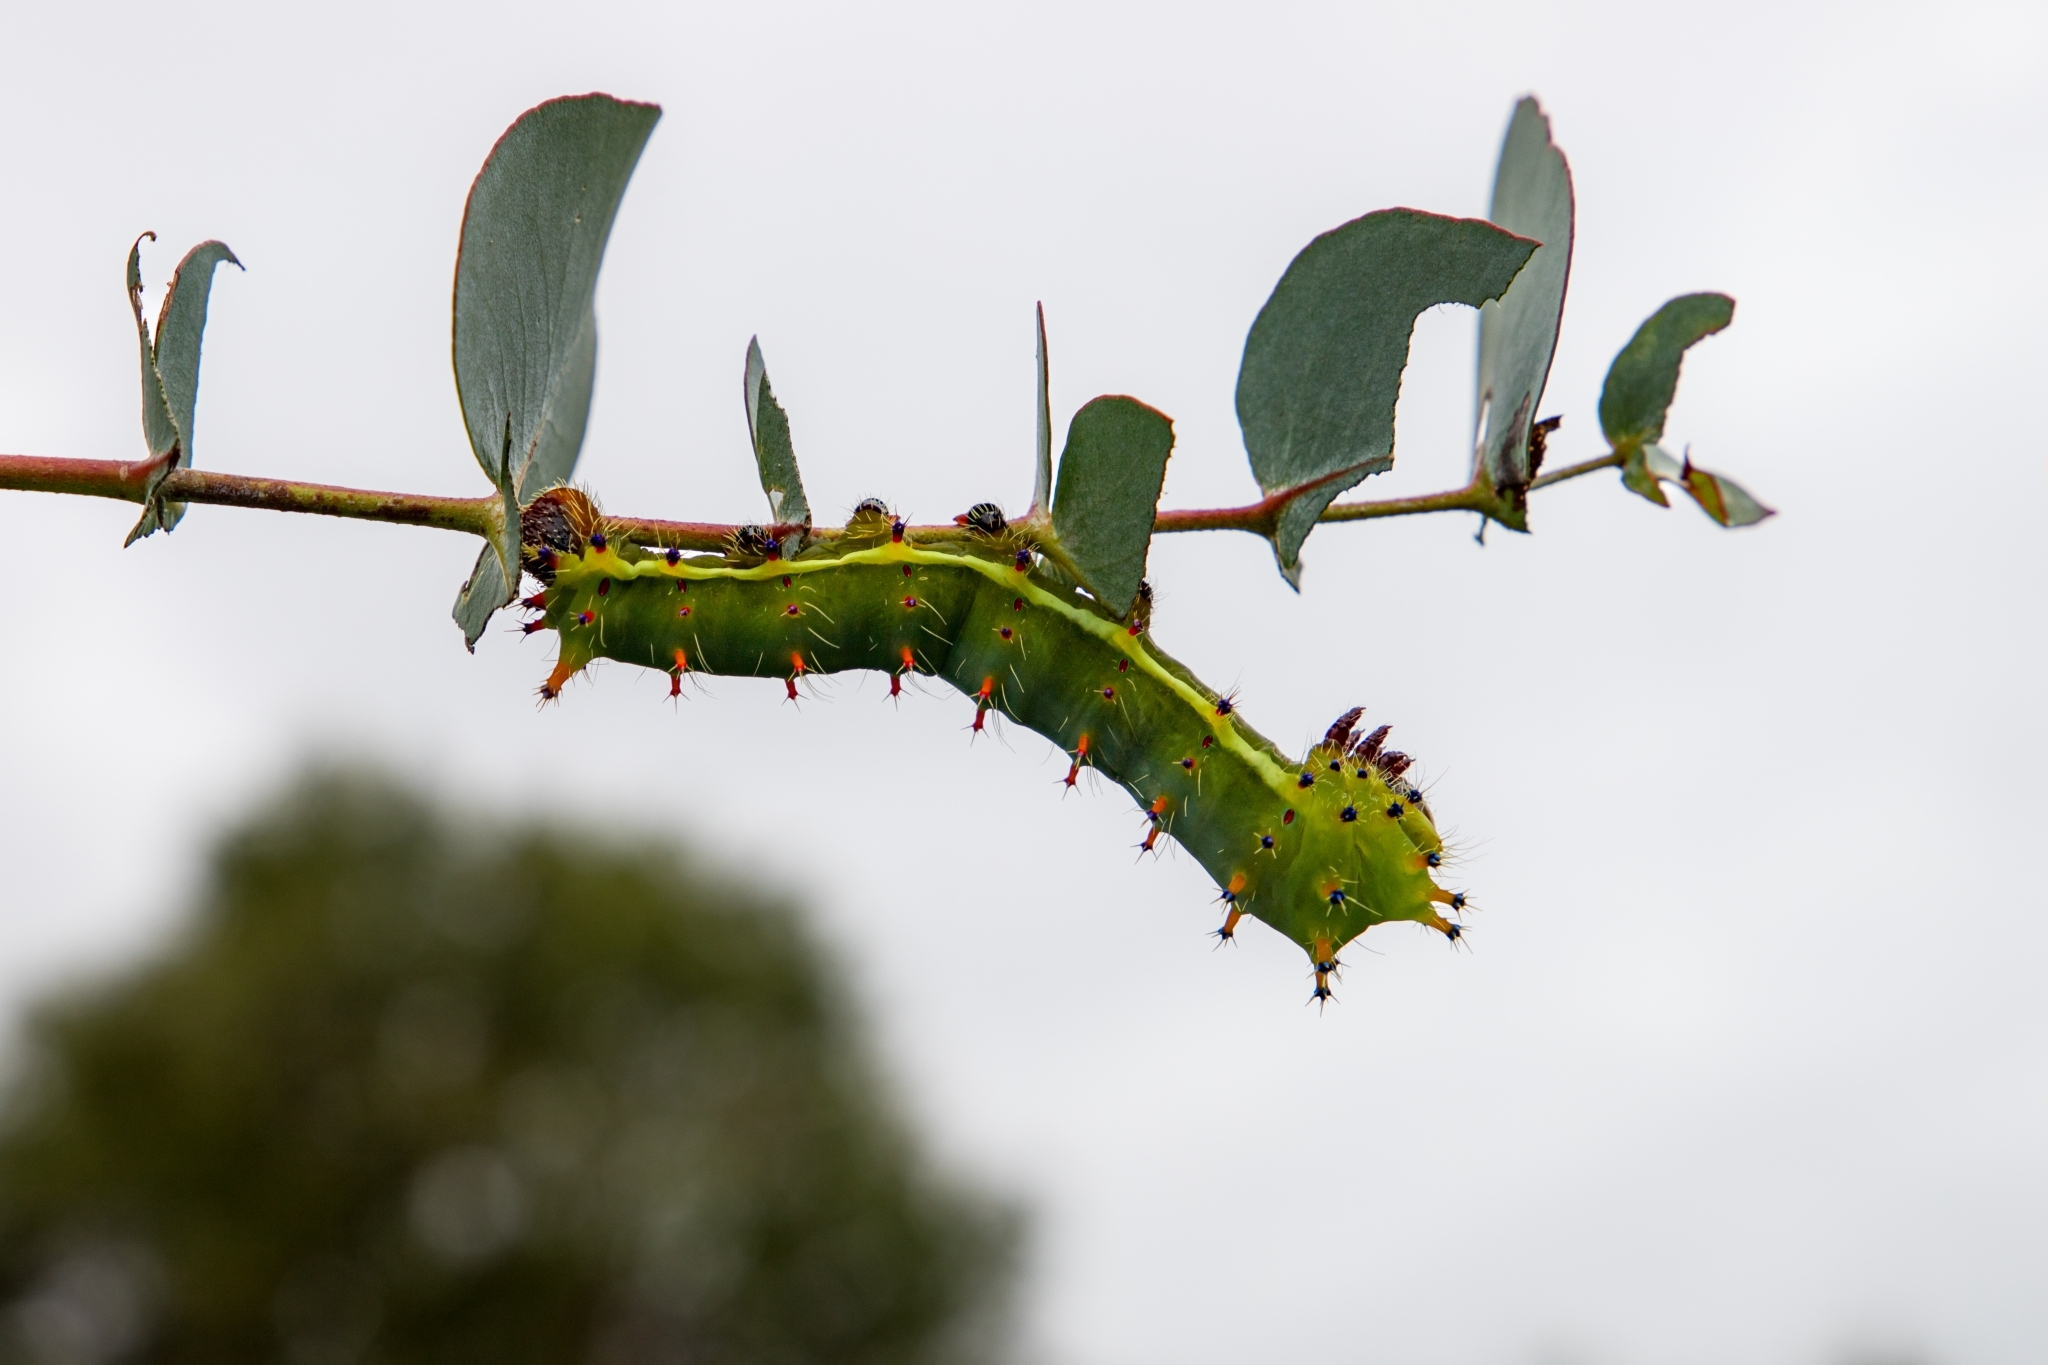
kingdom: Animalia
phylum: Arthropoda
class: Insecta
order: Lepidoptera
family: Saturniidae
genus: Opodiphthera
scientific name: Opodiphthera
